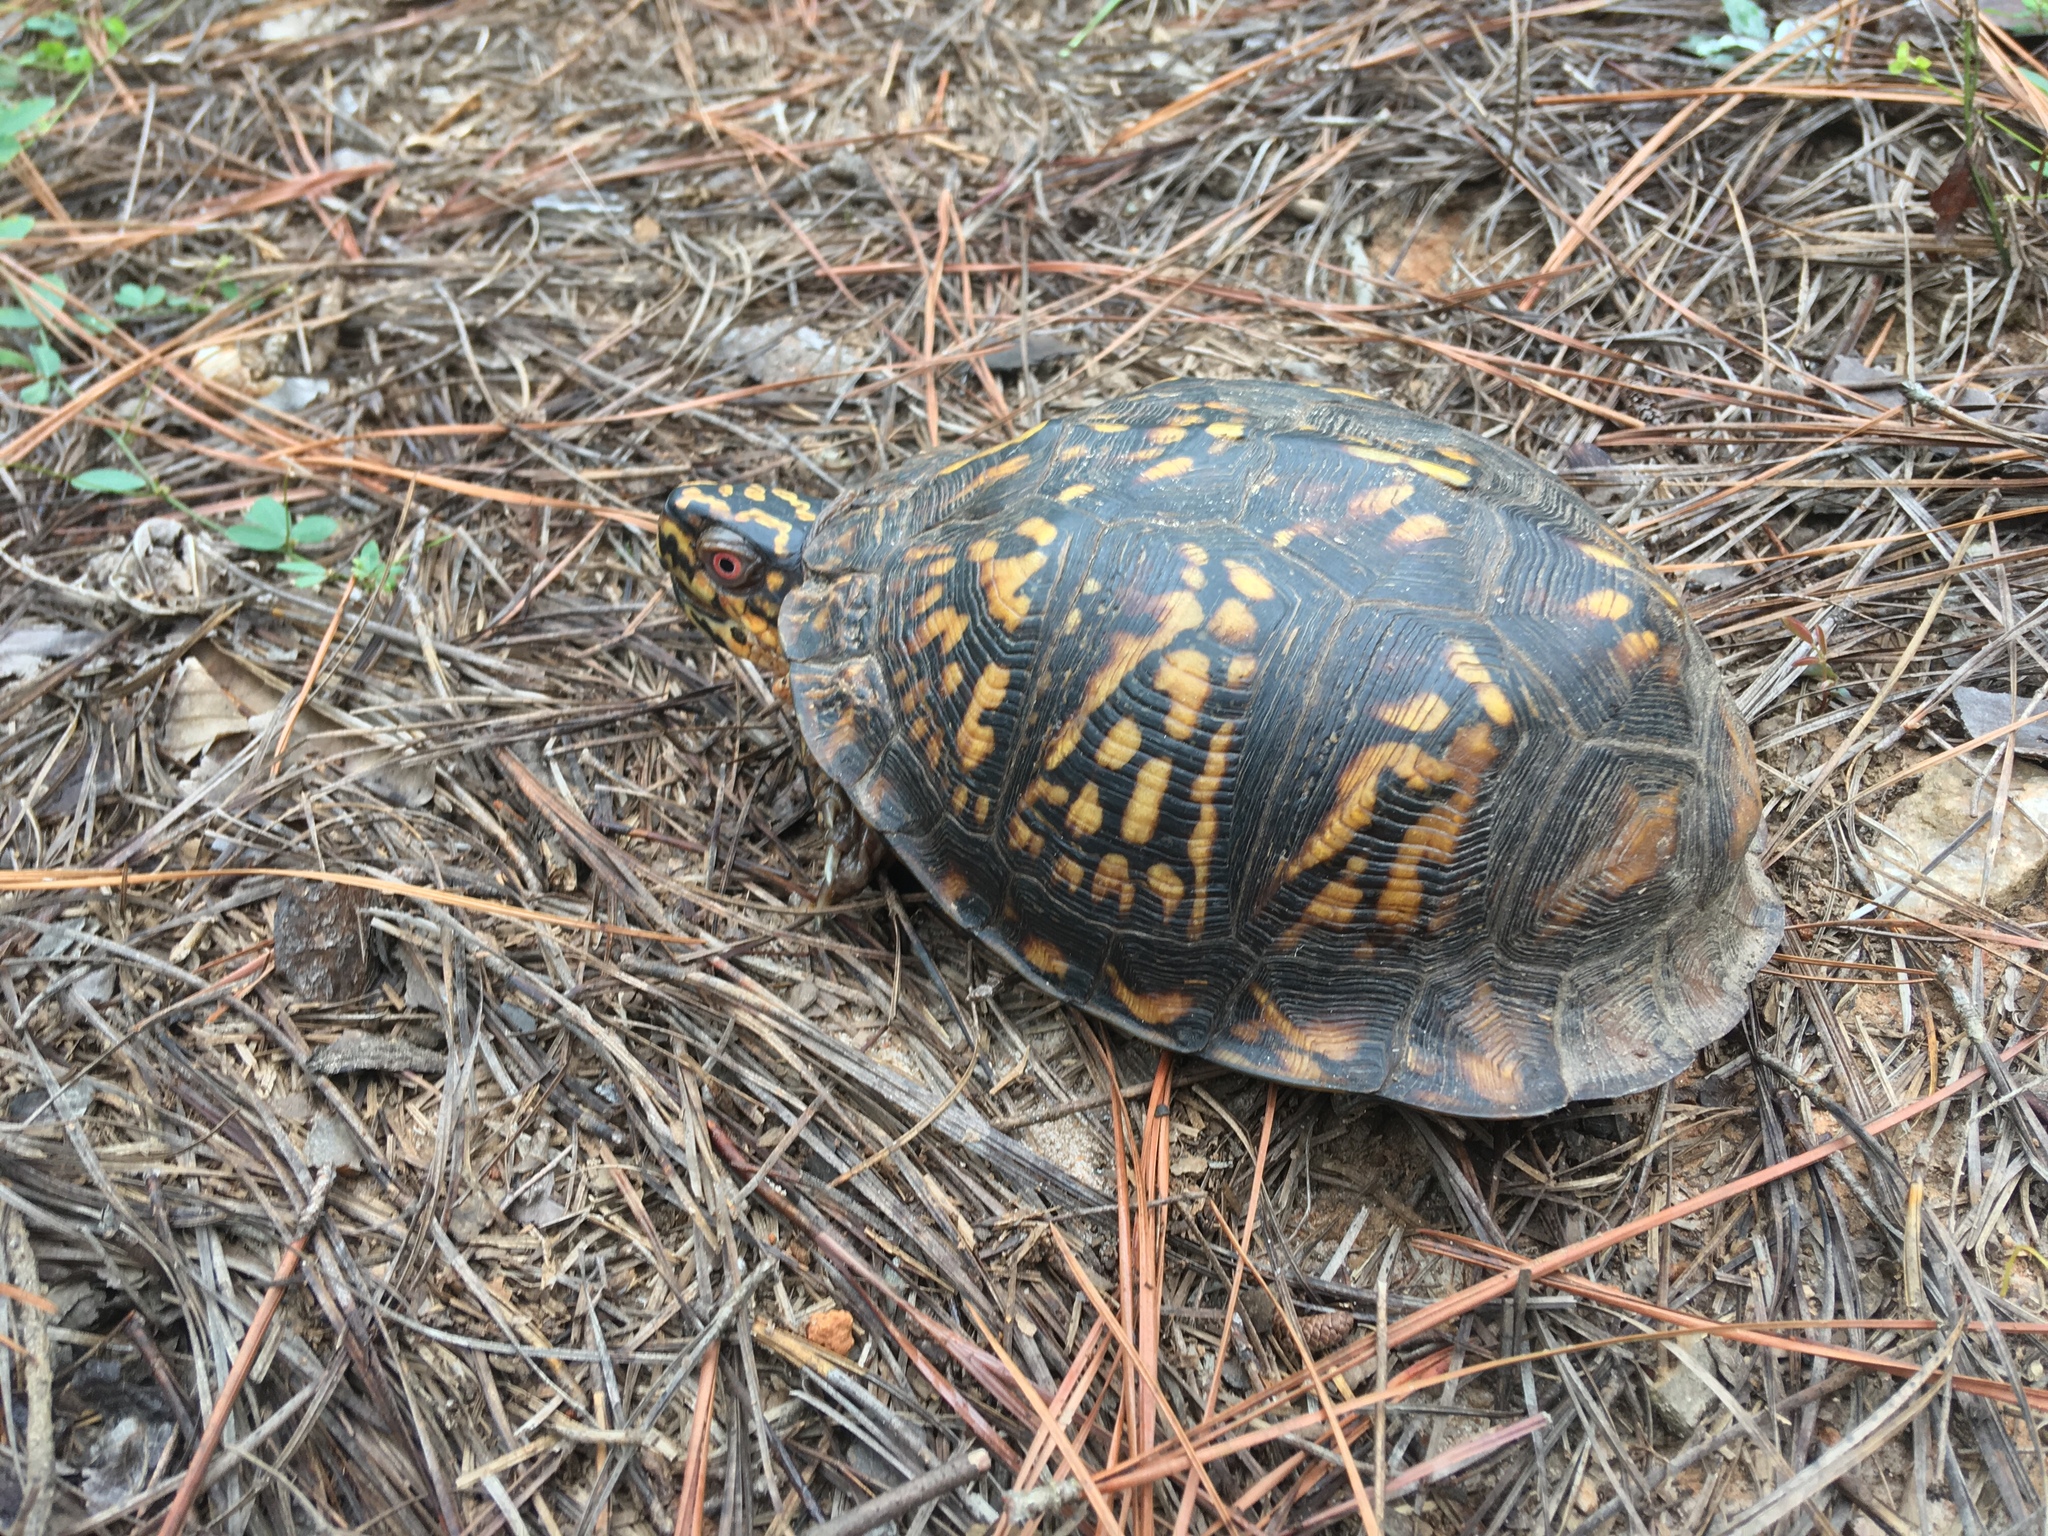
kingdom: Animalia
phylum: Chordata
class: Testudines
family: Emydidae
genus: Terrapene
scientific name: Terrapene carolina
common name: Common box turtle
